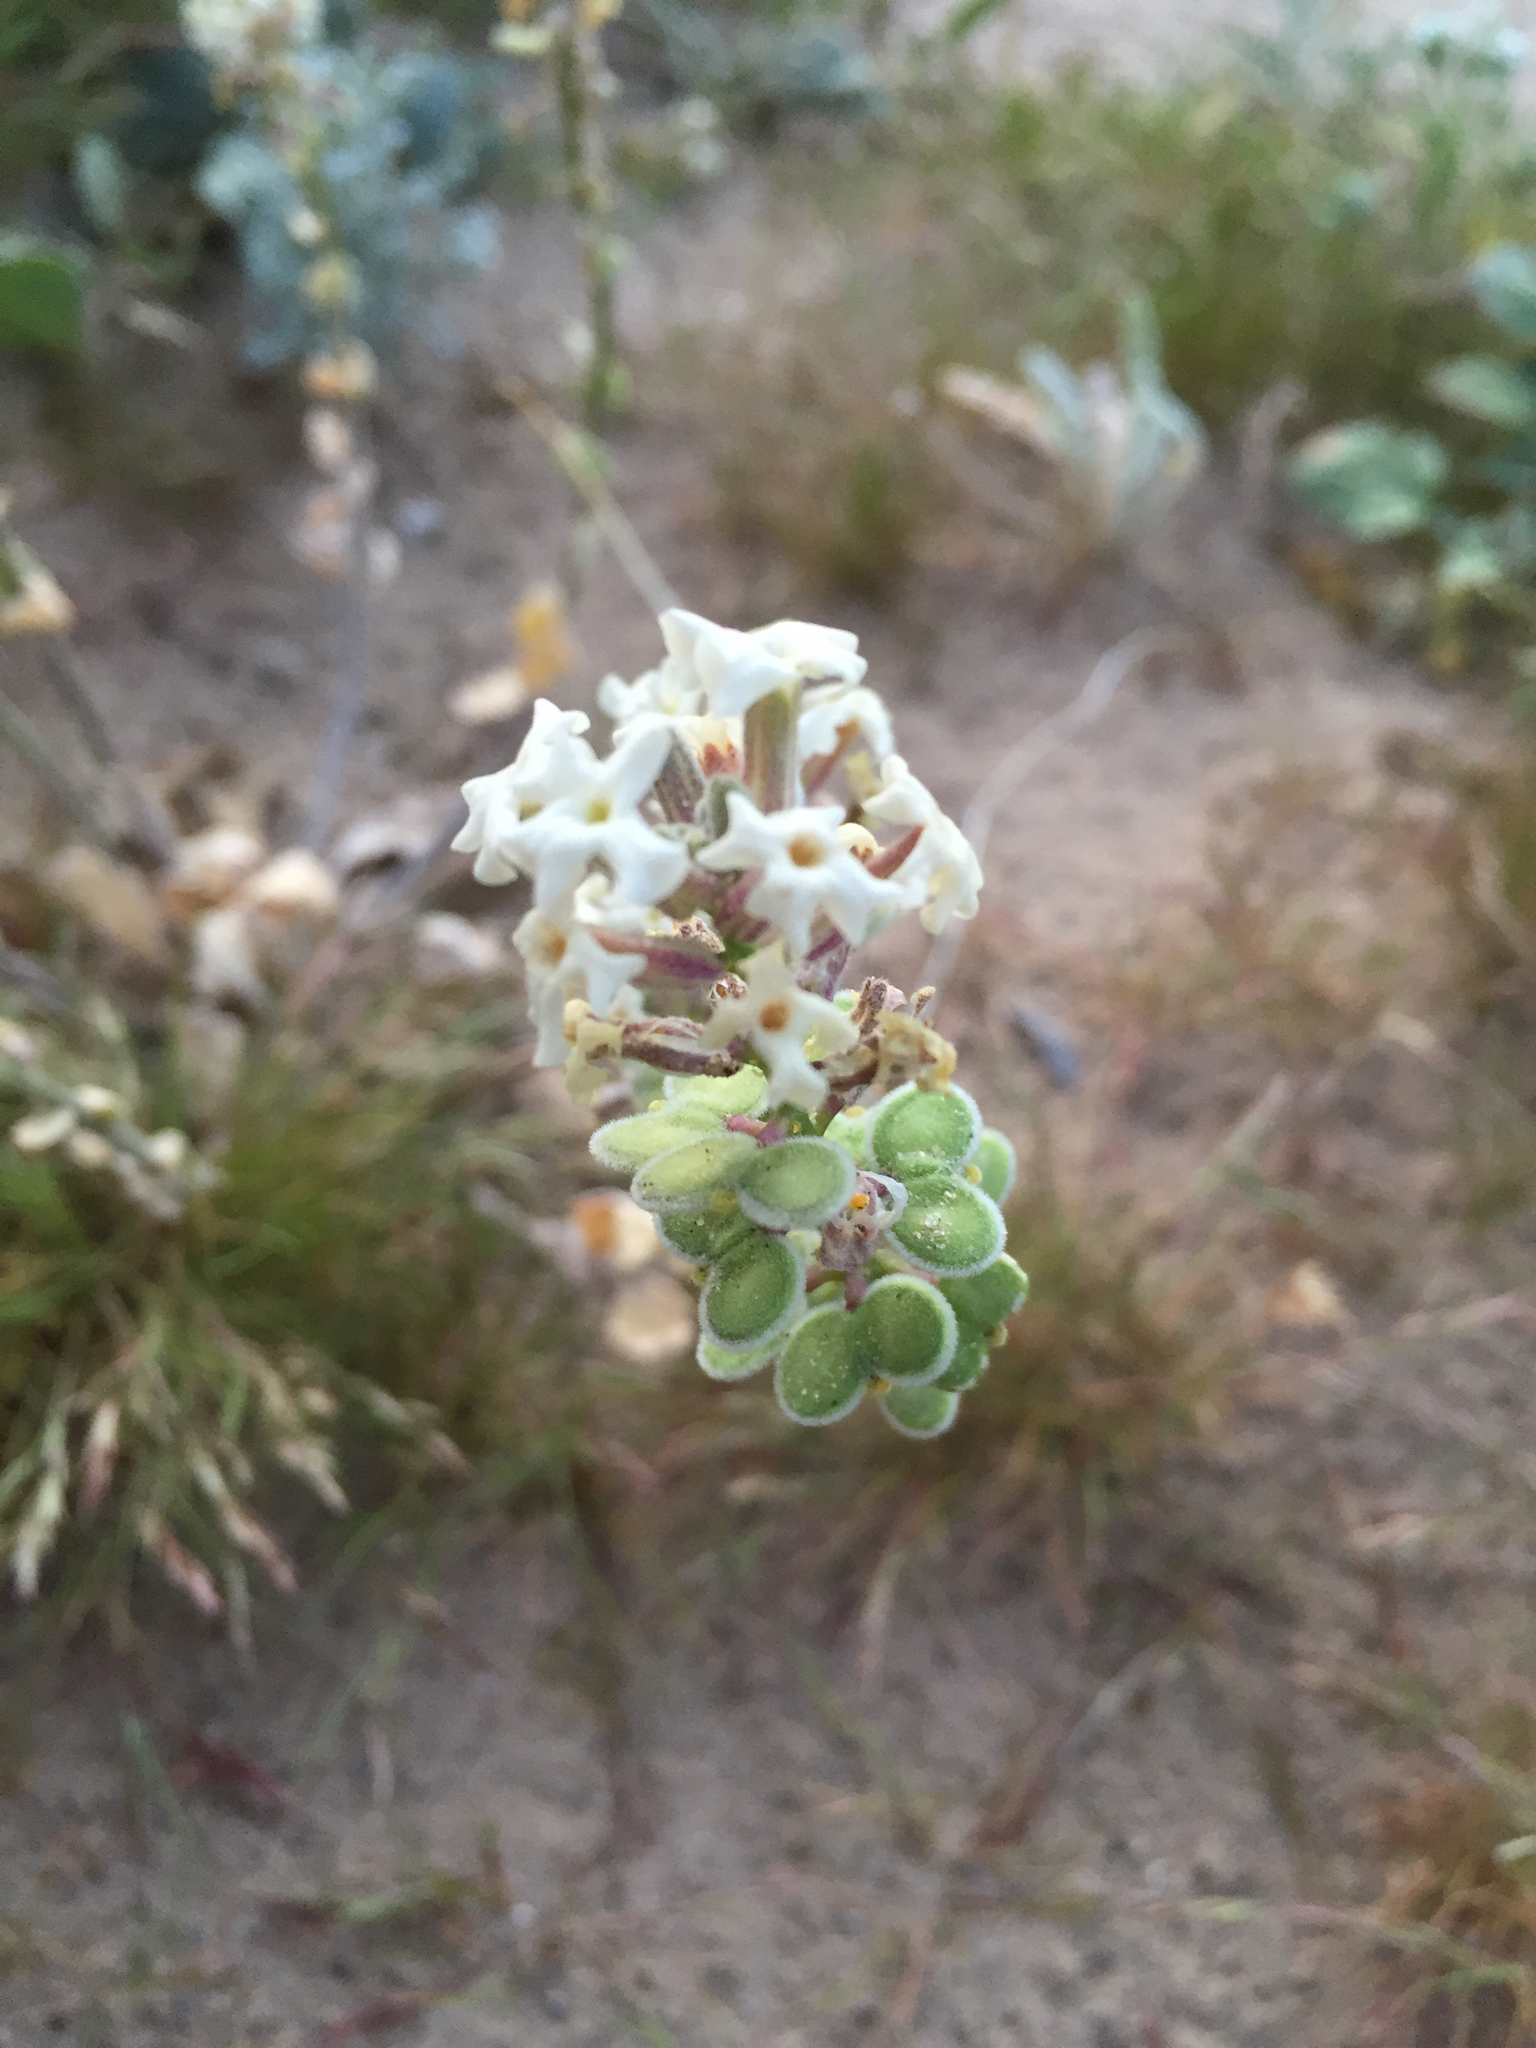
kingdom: Plantae
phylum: Tracheophyta
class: Magnoliopsida
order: Brassicales
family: Brassicaceae
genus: Dithyrea
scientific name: Dithyrea californica
